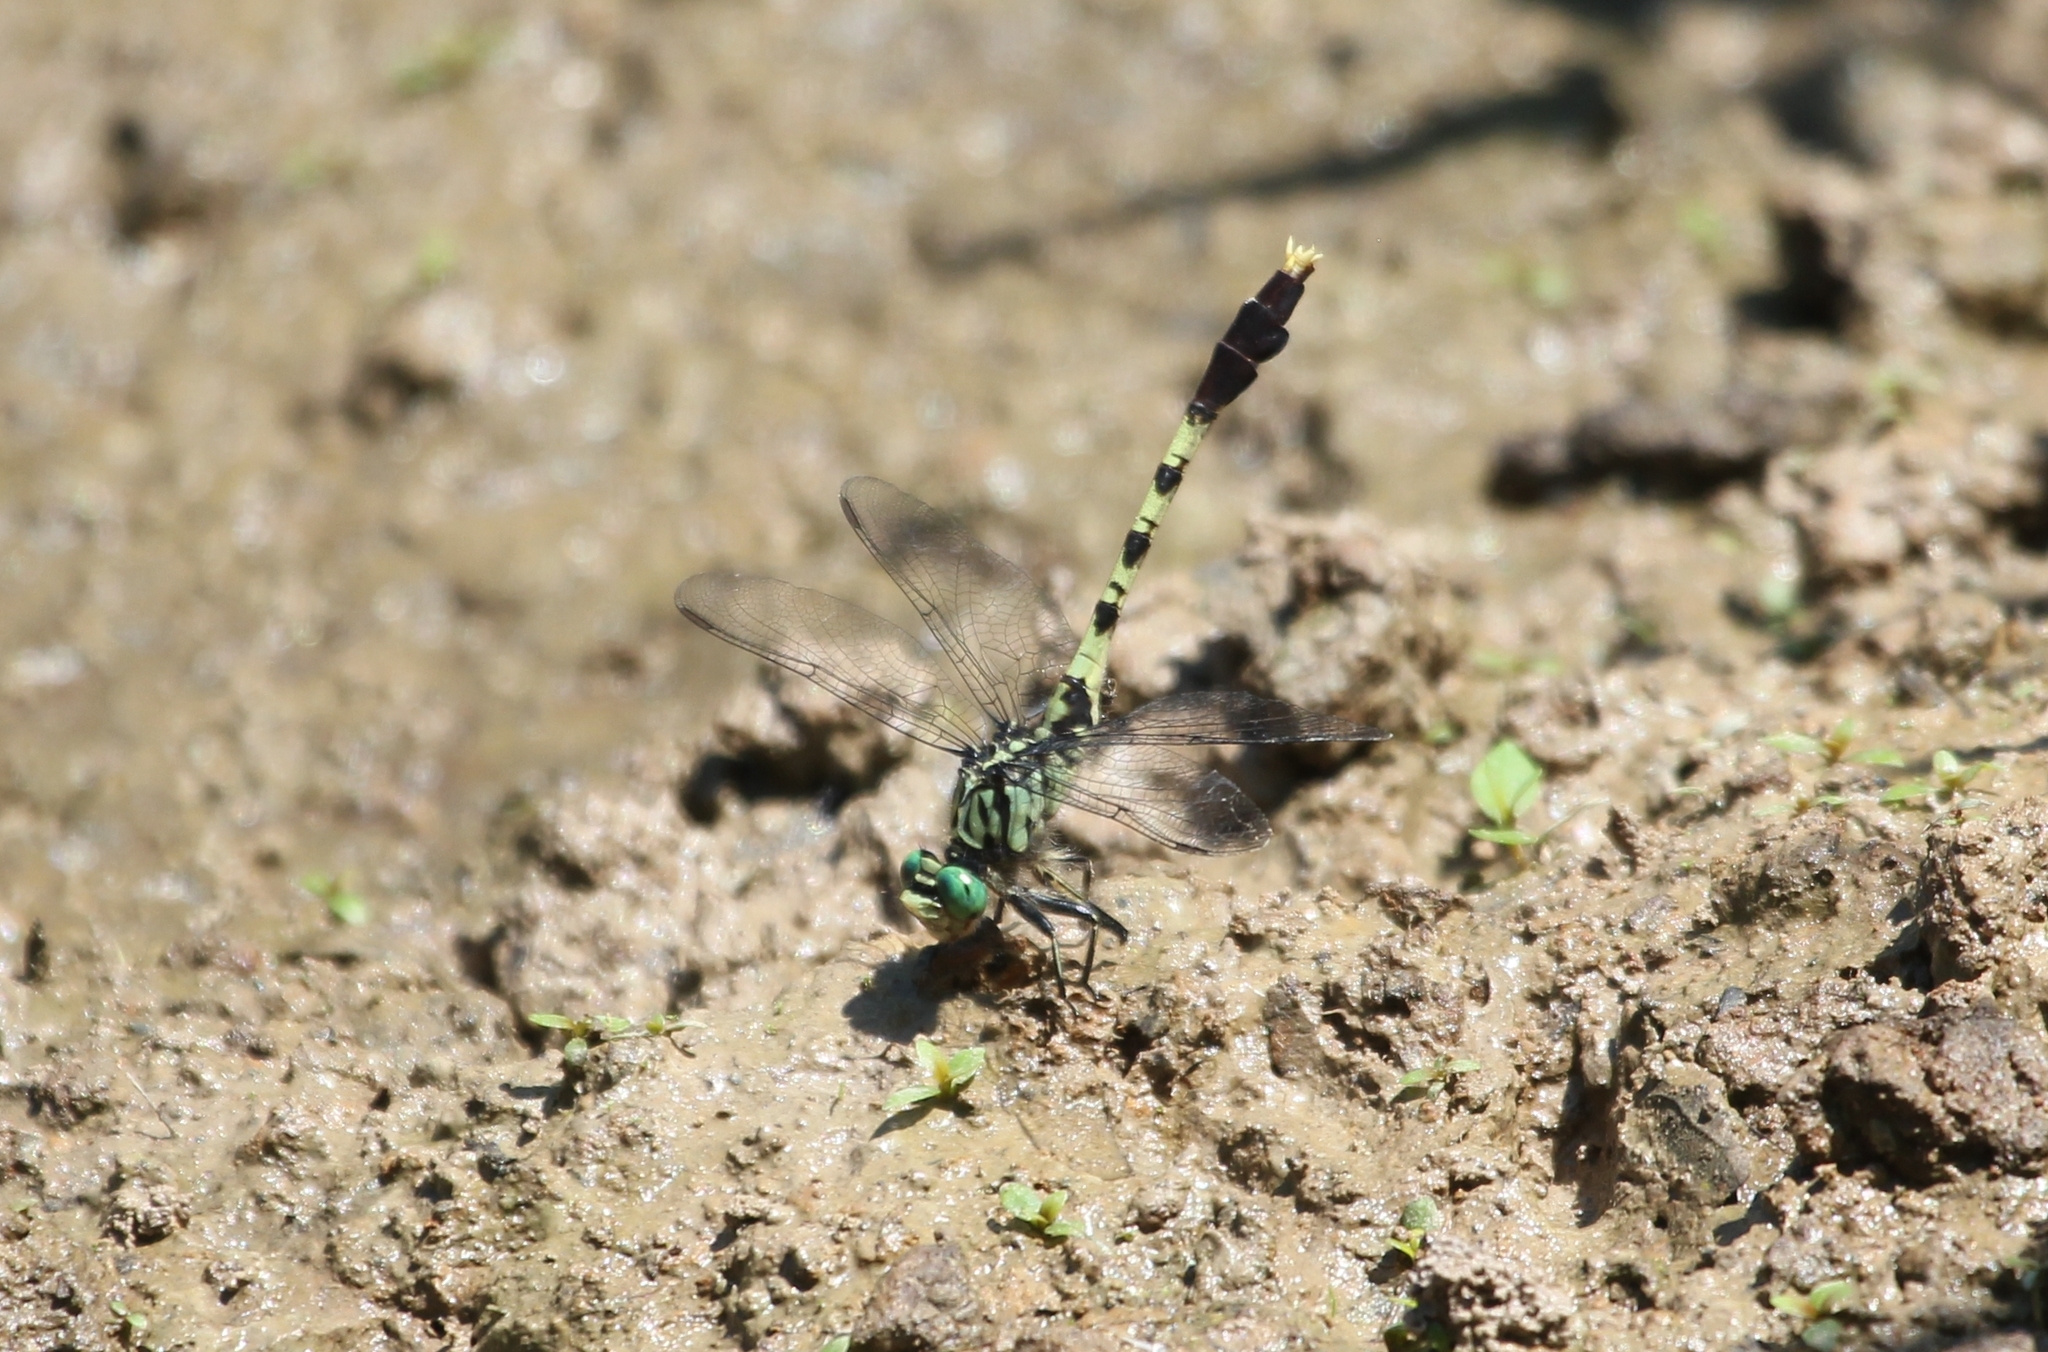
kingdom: Animalia
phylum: Arthropoda
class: Insecta
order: Odonata
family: Gomphidae
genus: Arigomphus
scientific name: Arigomphus maxwelli
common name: Bayou clubtail
